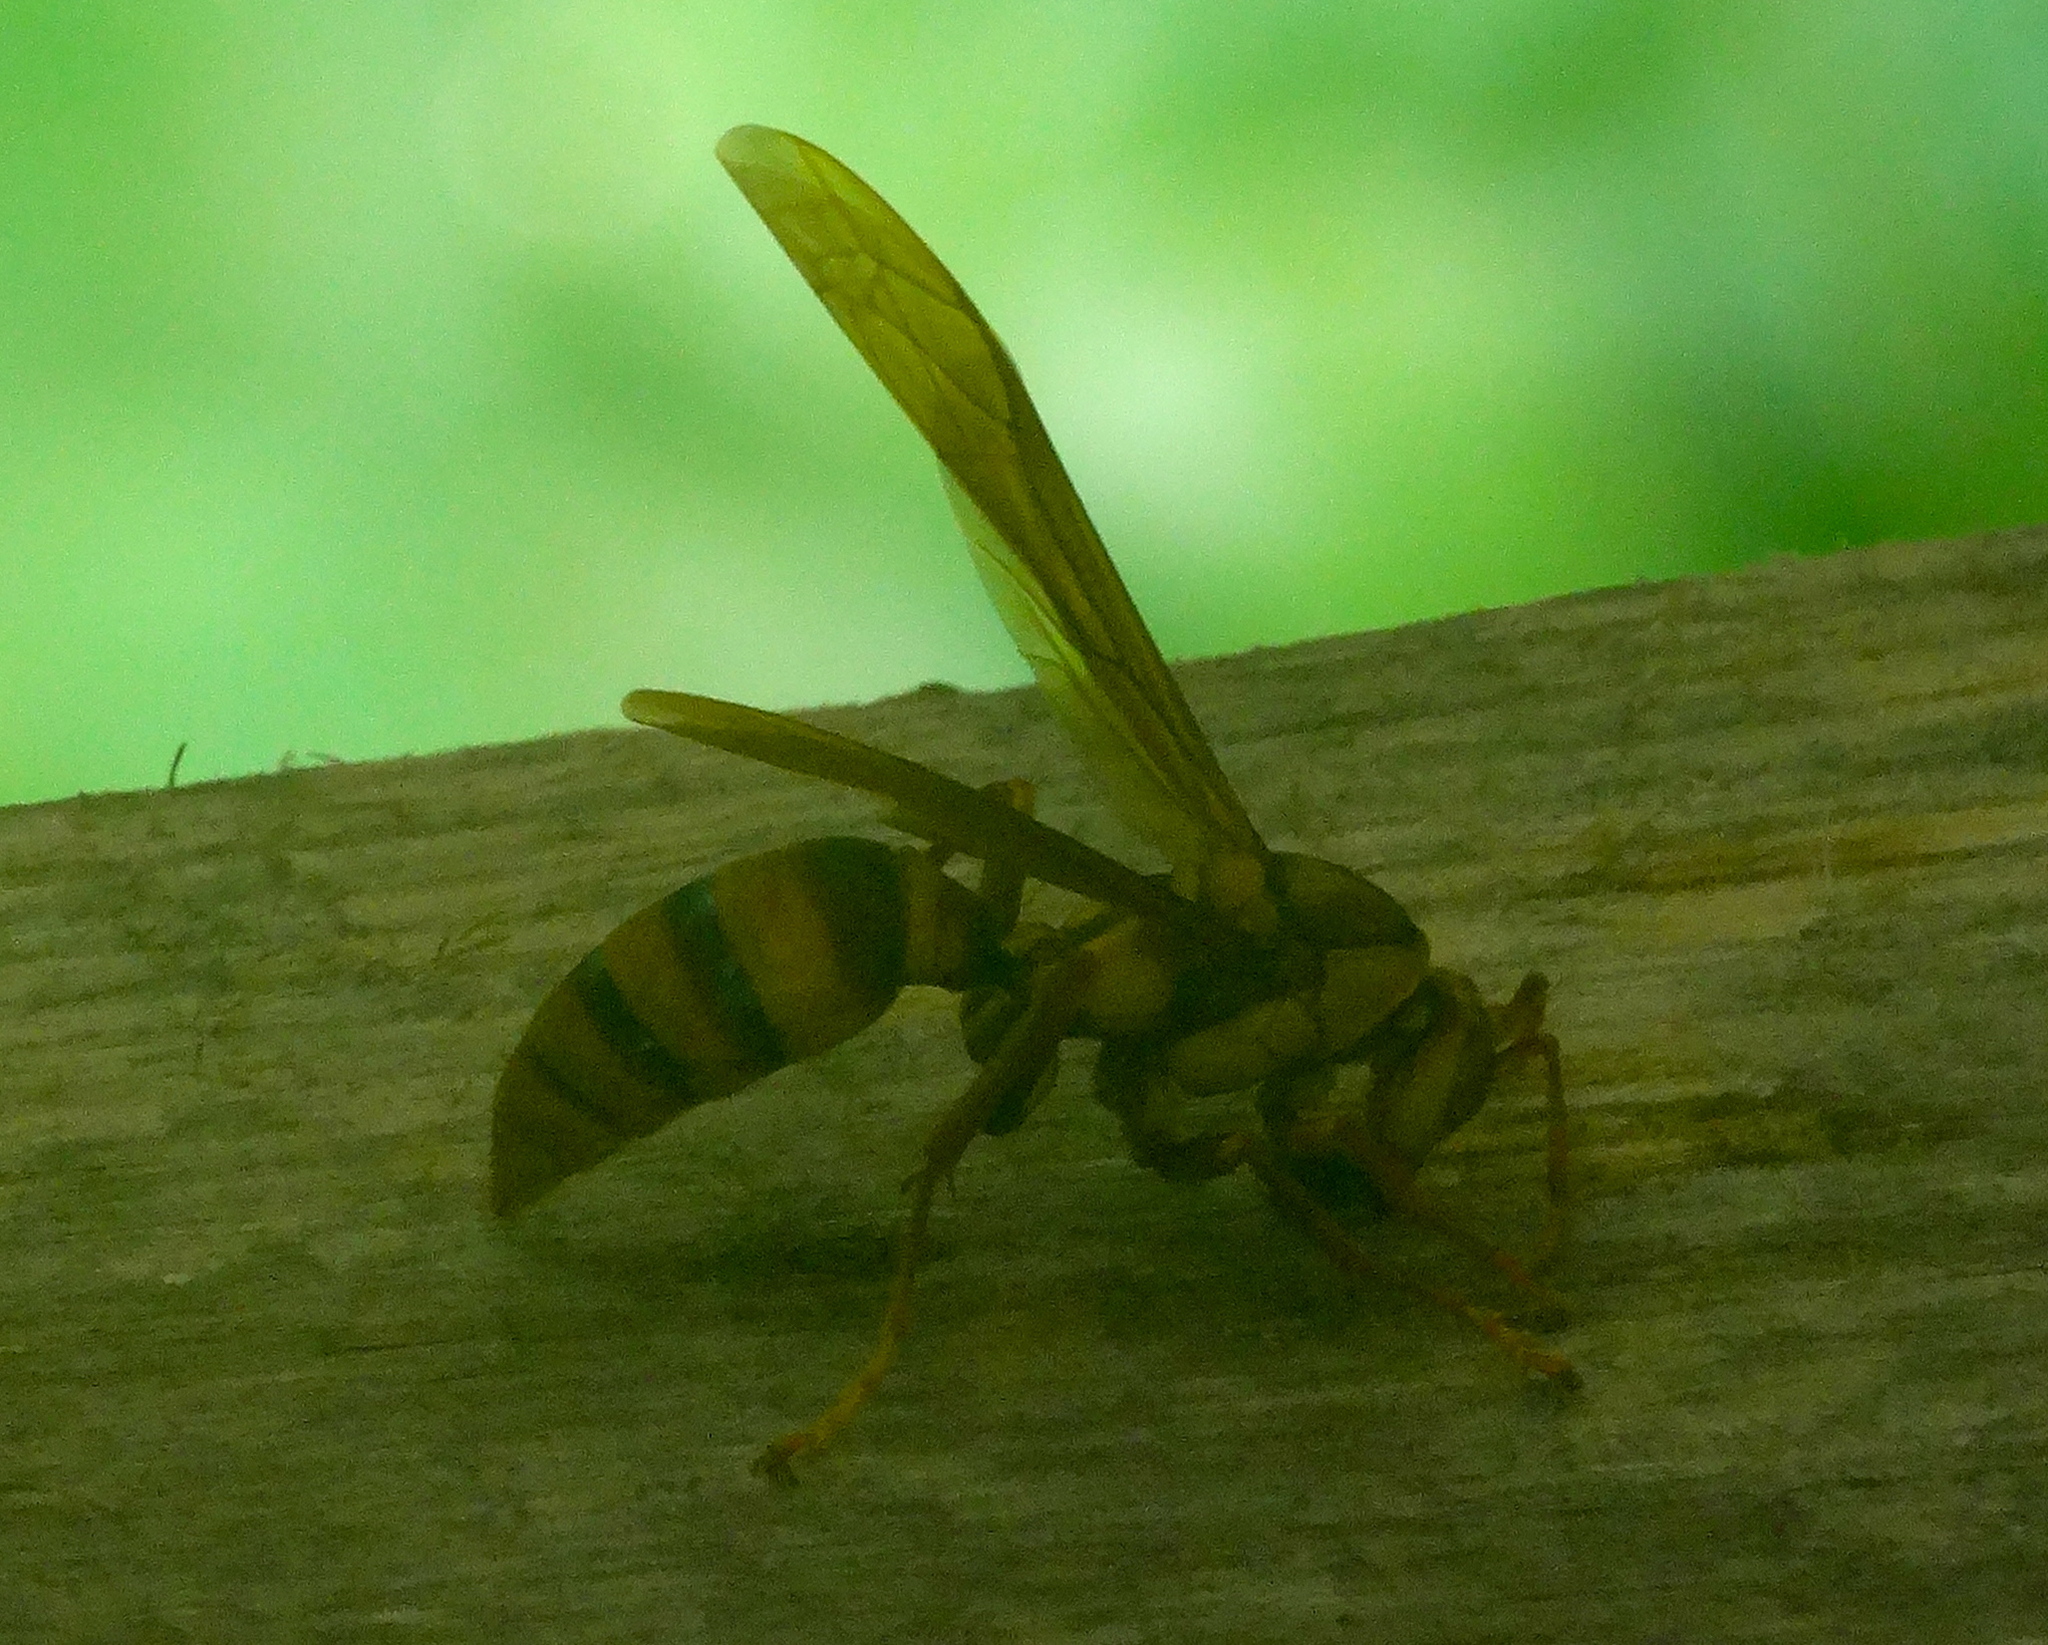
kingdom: Animalia
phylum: Arthropoda
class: Insecta
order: Hymenoptera
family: Eumenidae
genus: Polistes
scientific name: Polistes carnifex
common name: Paper wasp
